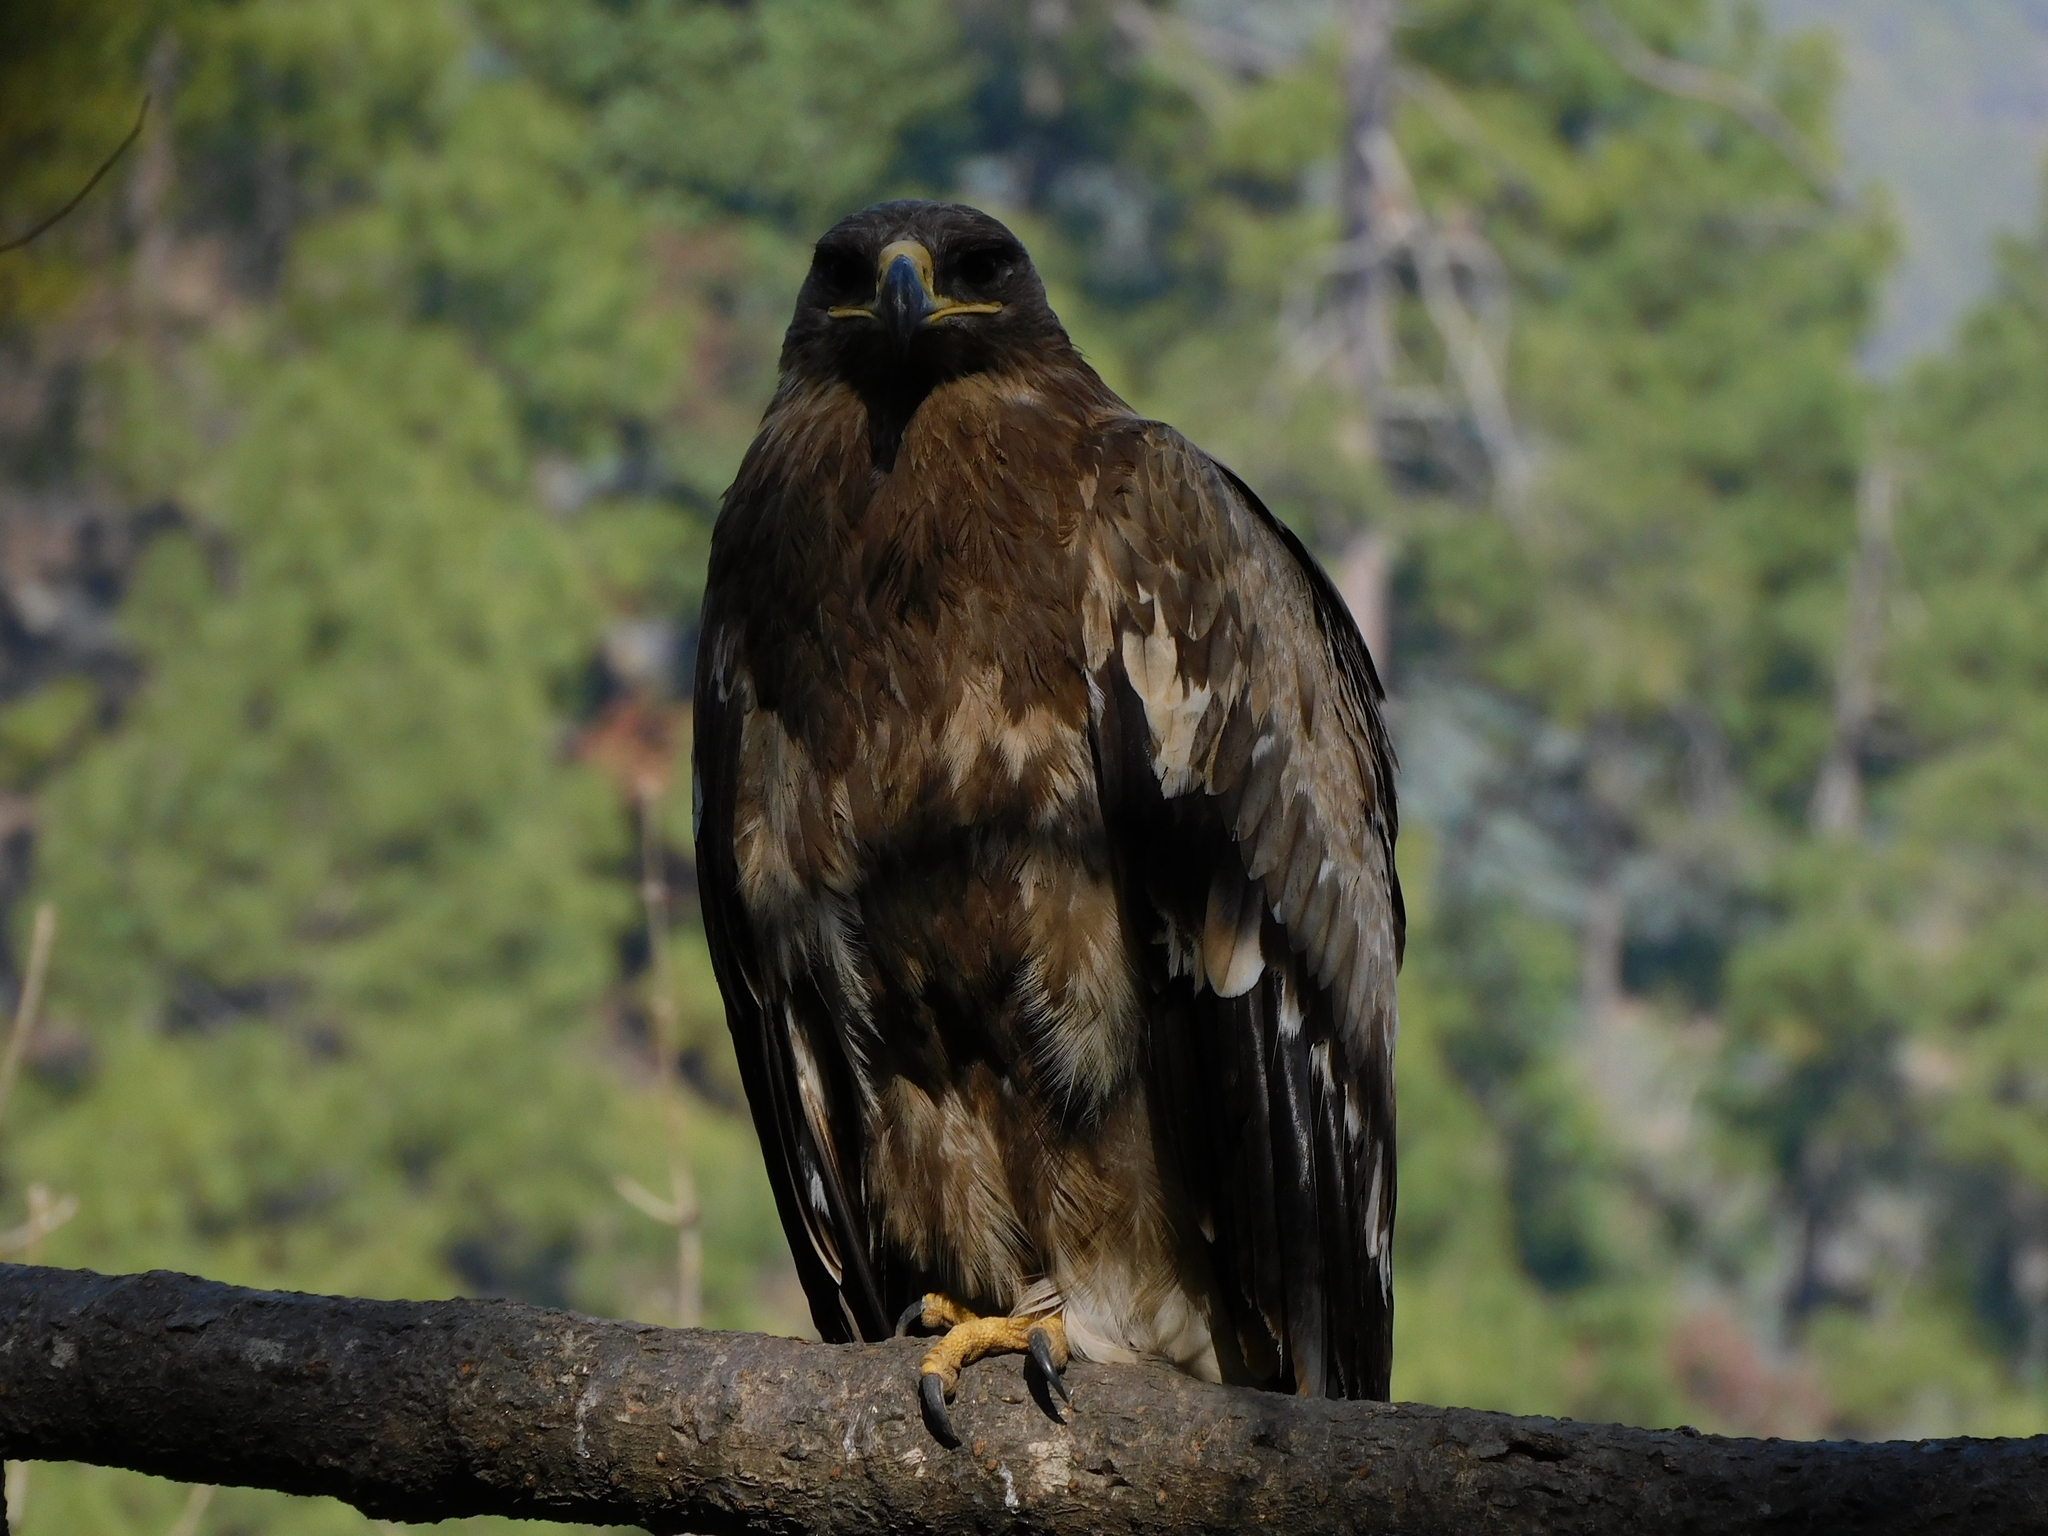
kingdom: Animalia
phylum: Chordata
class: Aves
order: Accipitriformes
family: Accipitridae
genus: Aquila
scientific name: Aquila nipalensis
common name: Steppe eagle
